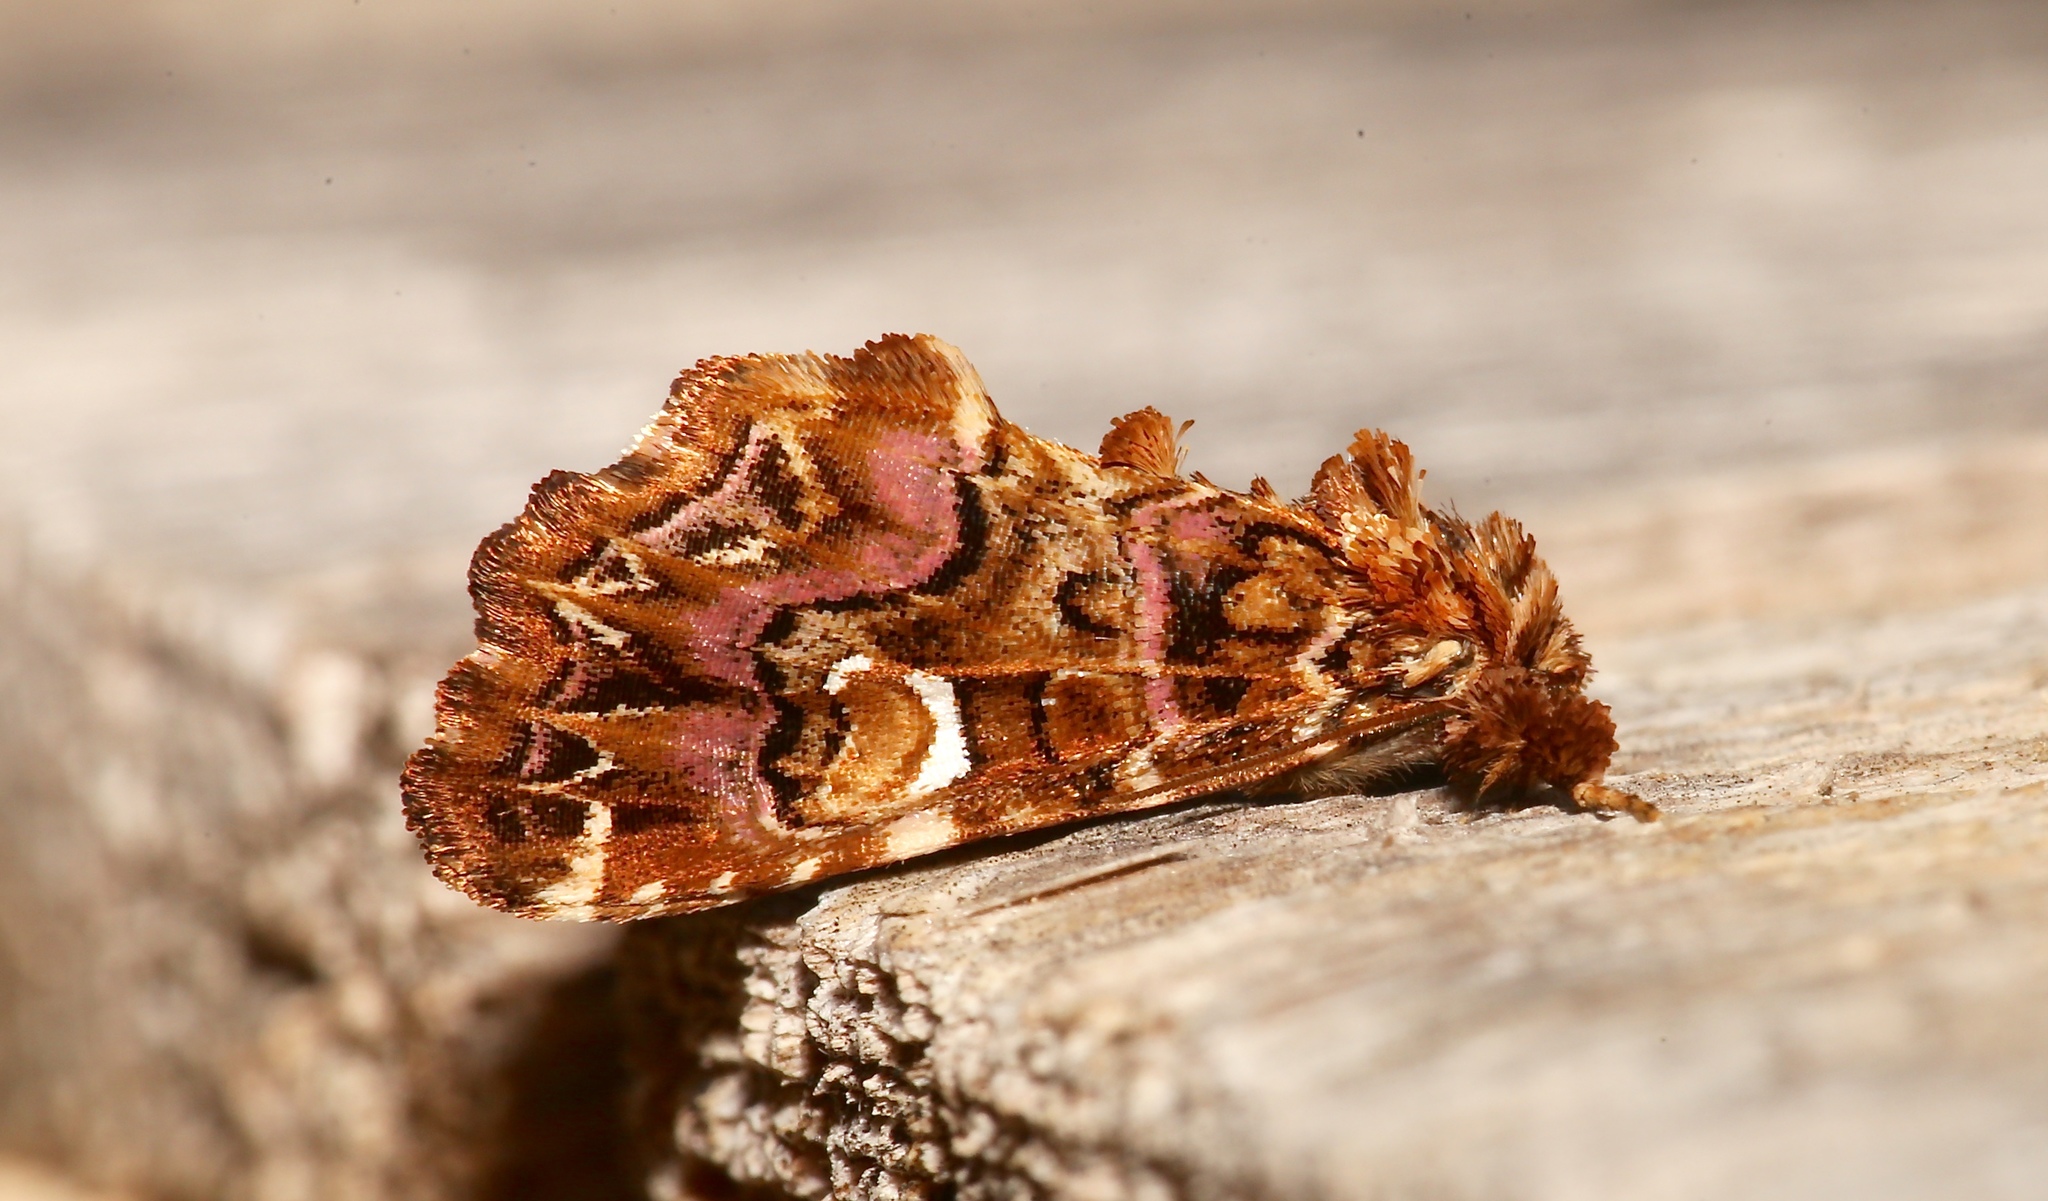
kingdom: Animalia
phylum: Arthropoda
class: Insecta
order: Lepidoptera
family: Noctuidae
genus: Callopistria
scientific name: Callopistria mollissima
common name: Pink-shaded fern moth
